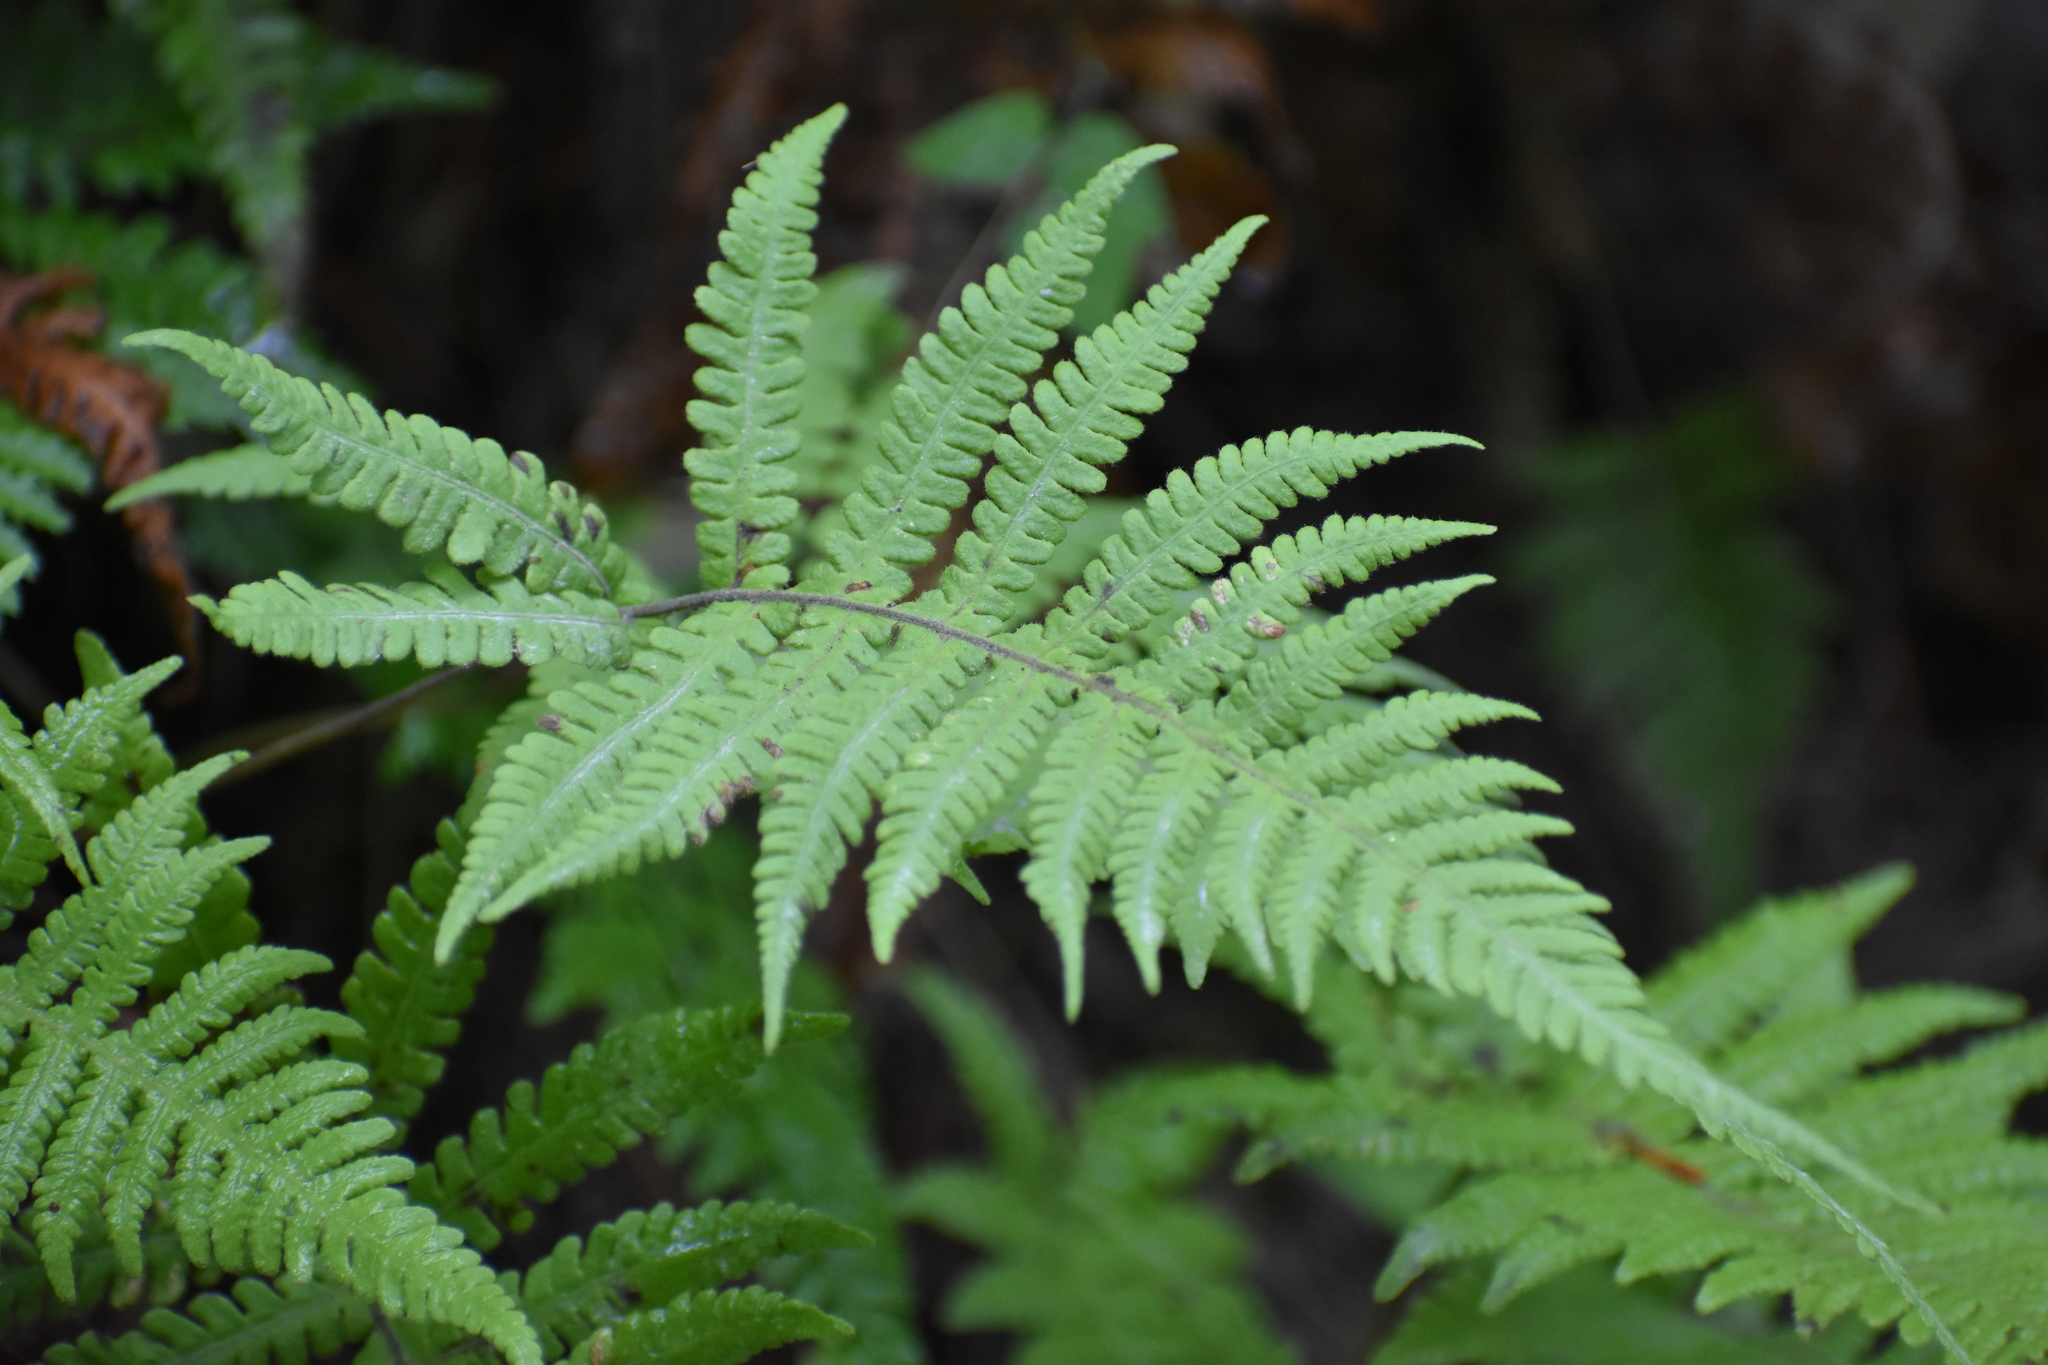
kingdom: Plantae
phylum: Tracheophyta
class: Polypodiopsida
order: Polypodiales
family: Thelypteridaceae
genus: Phegopteris
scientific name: Phegopteris connectilis
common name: Beech fern
